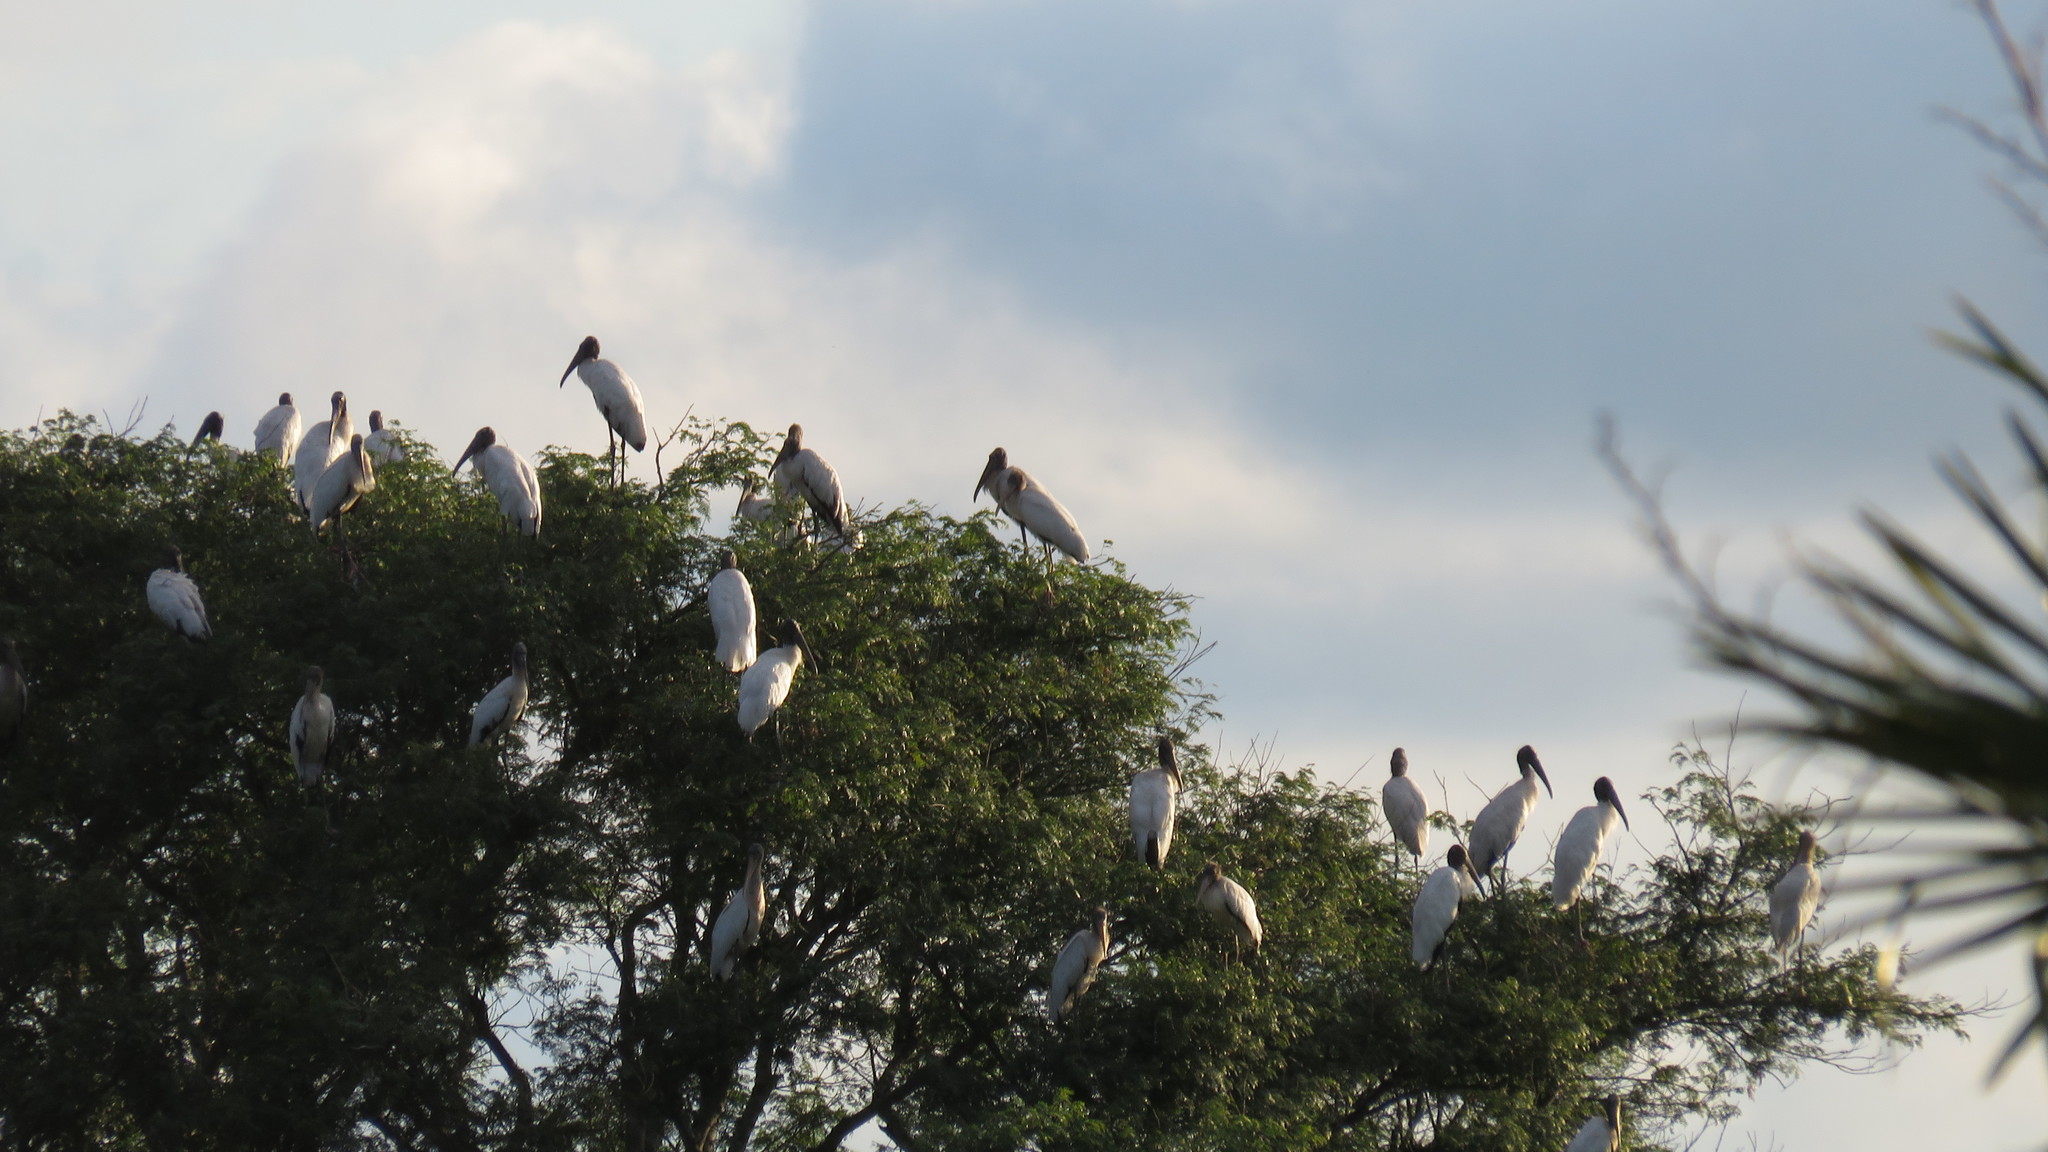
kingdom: Animalia
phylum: Chordata
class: Aves
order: Ciconiiformes
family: Ciconiidae
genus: Mycteria
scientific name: Mycteria americana
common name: Wood stork
